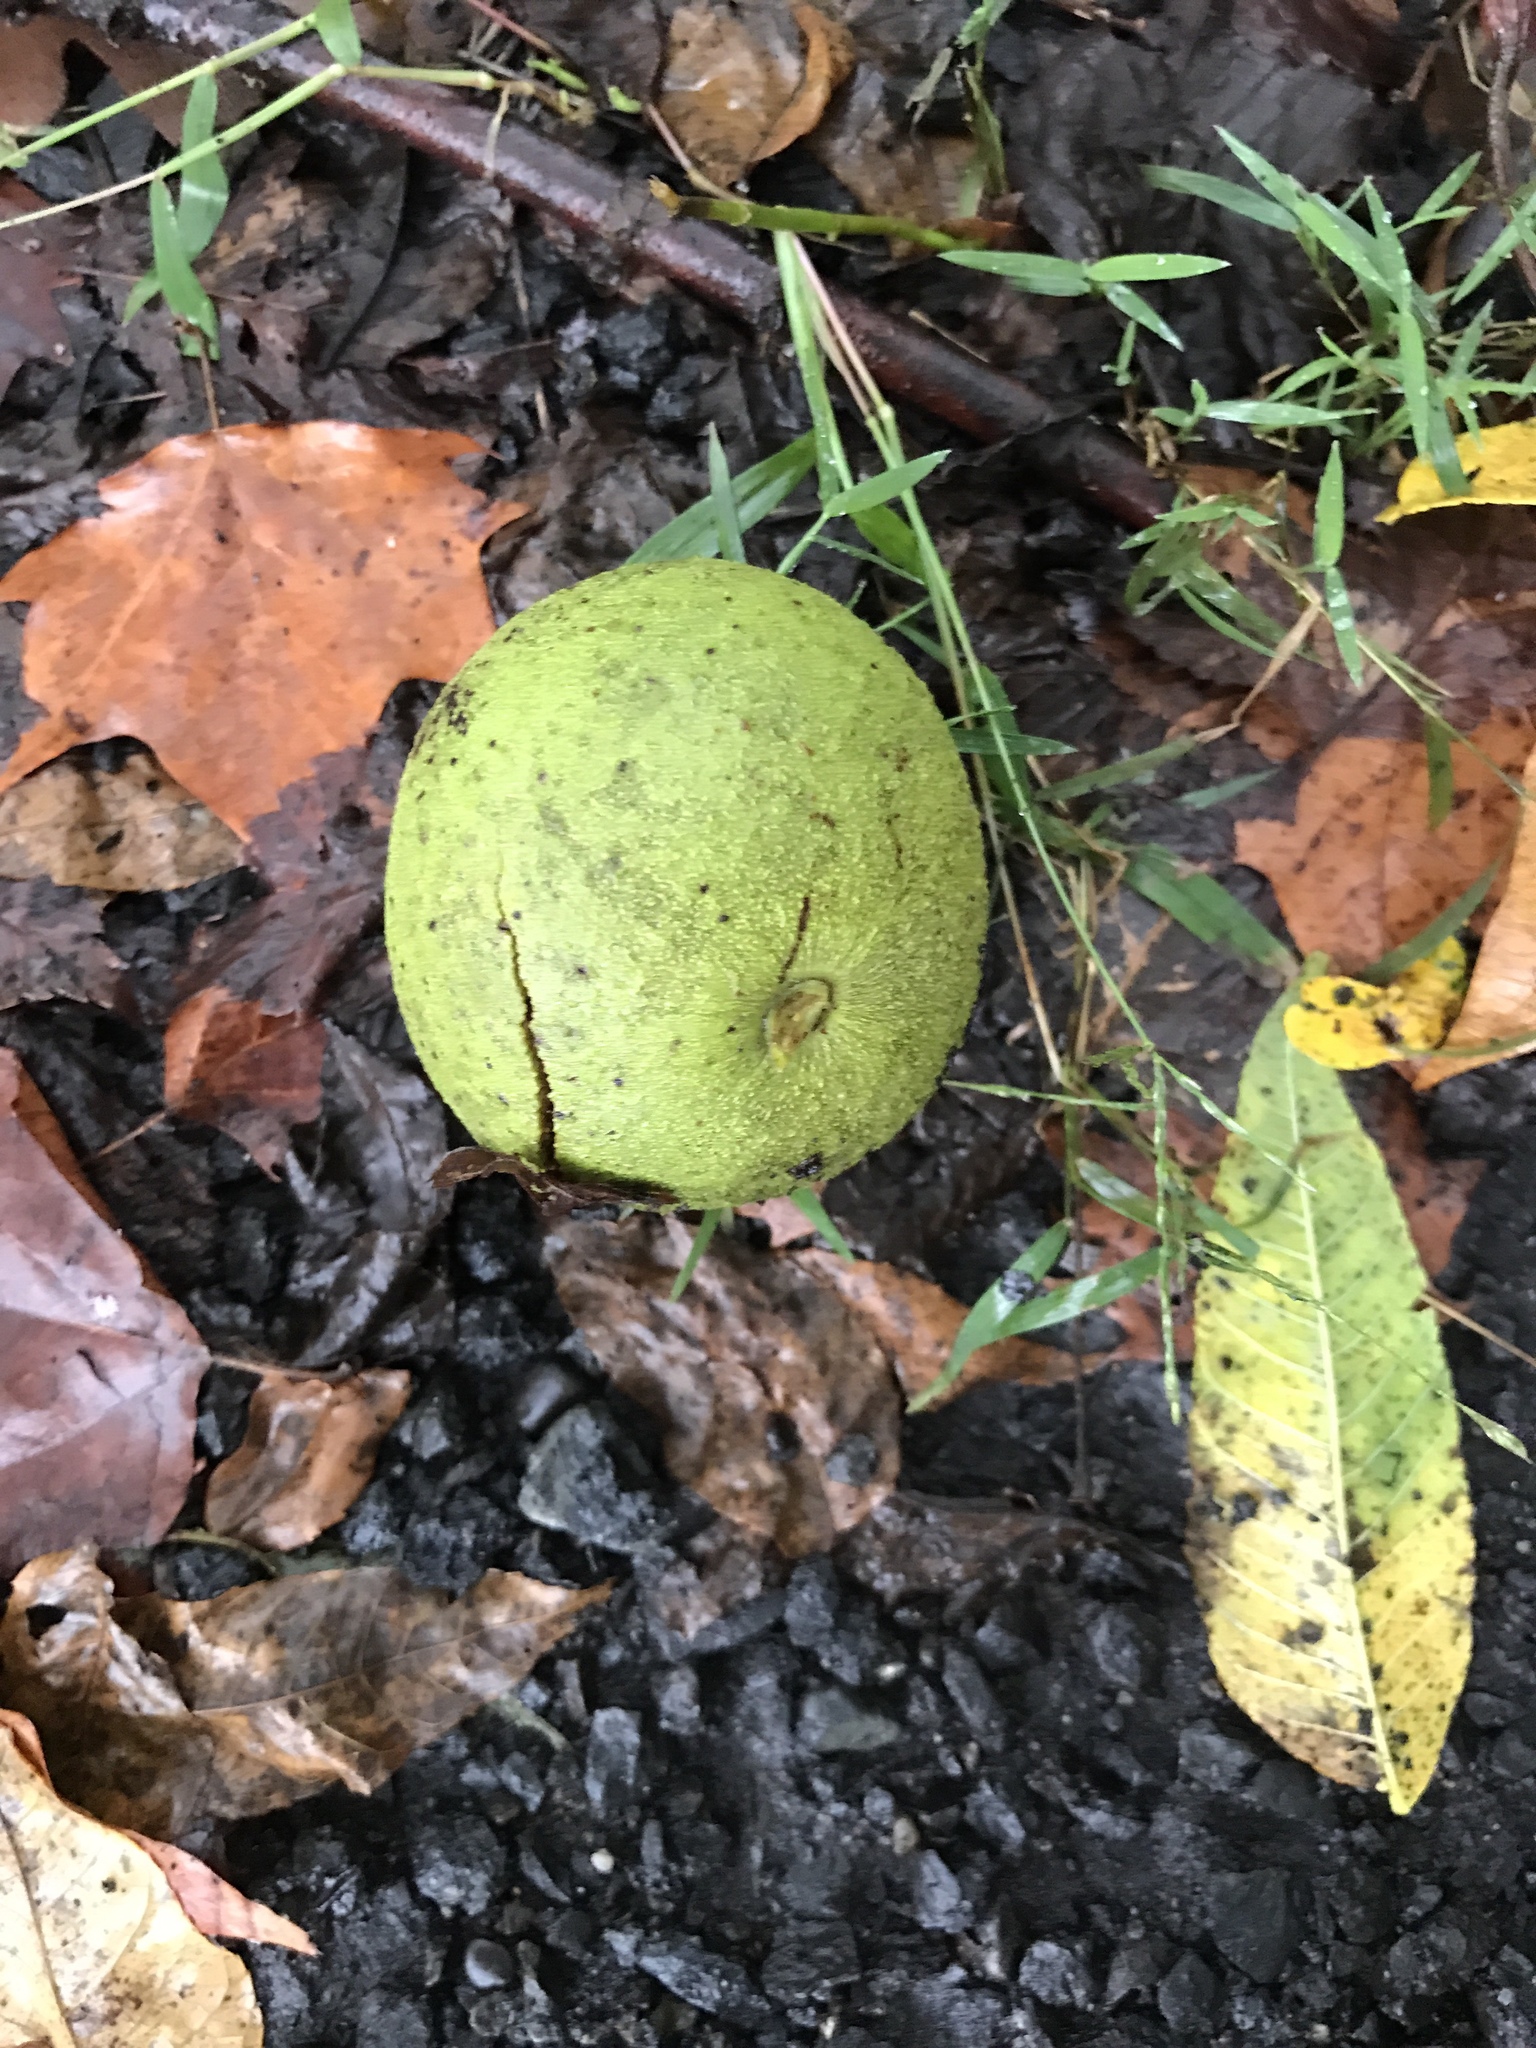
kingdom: Plantae
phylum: Tracheophyta
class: Magnoliopsida
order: Fagales
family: Juglandaceae
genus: Juglans
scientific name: Juglans nigra
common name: Black walnut
